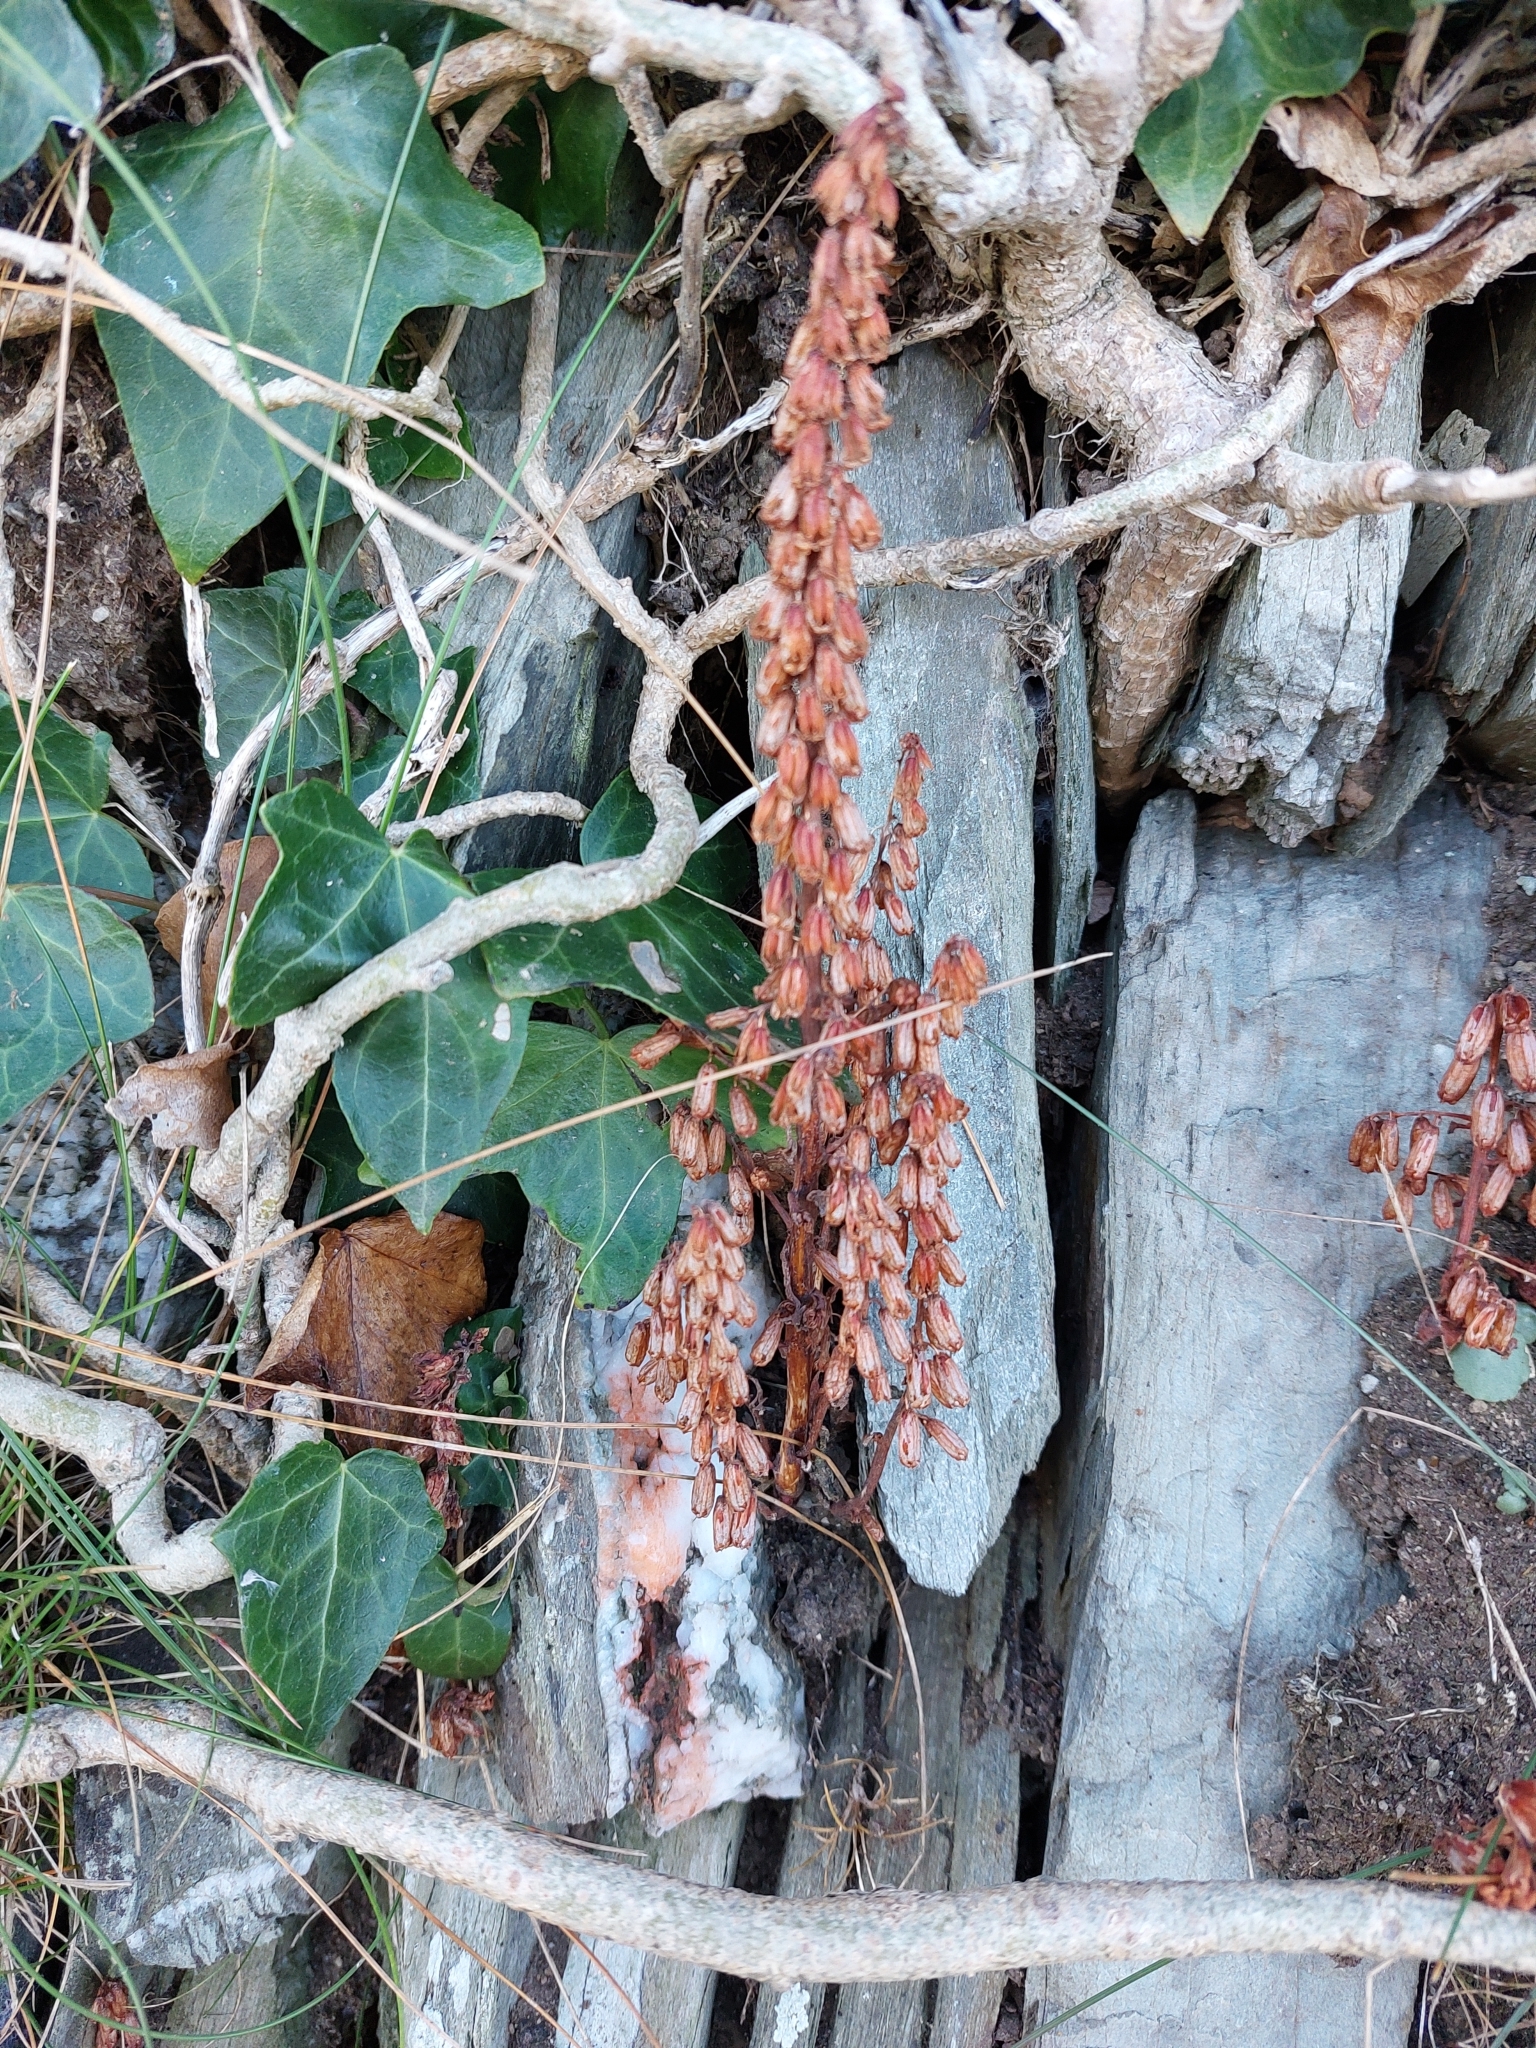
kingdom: Plantae
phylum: Tracheophyta
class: Magnoliopsida
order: Saxifragales
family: Crassulaceae
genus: Umbilicus
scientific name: Umbilicus rupestris
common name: Navelwort
